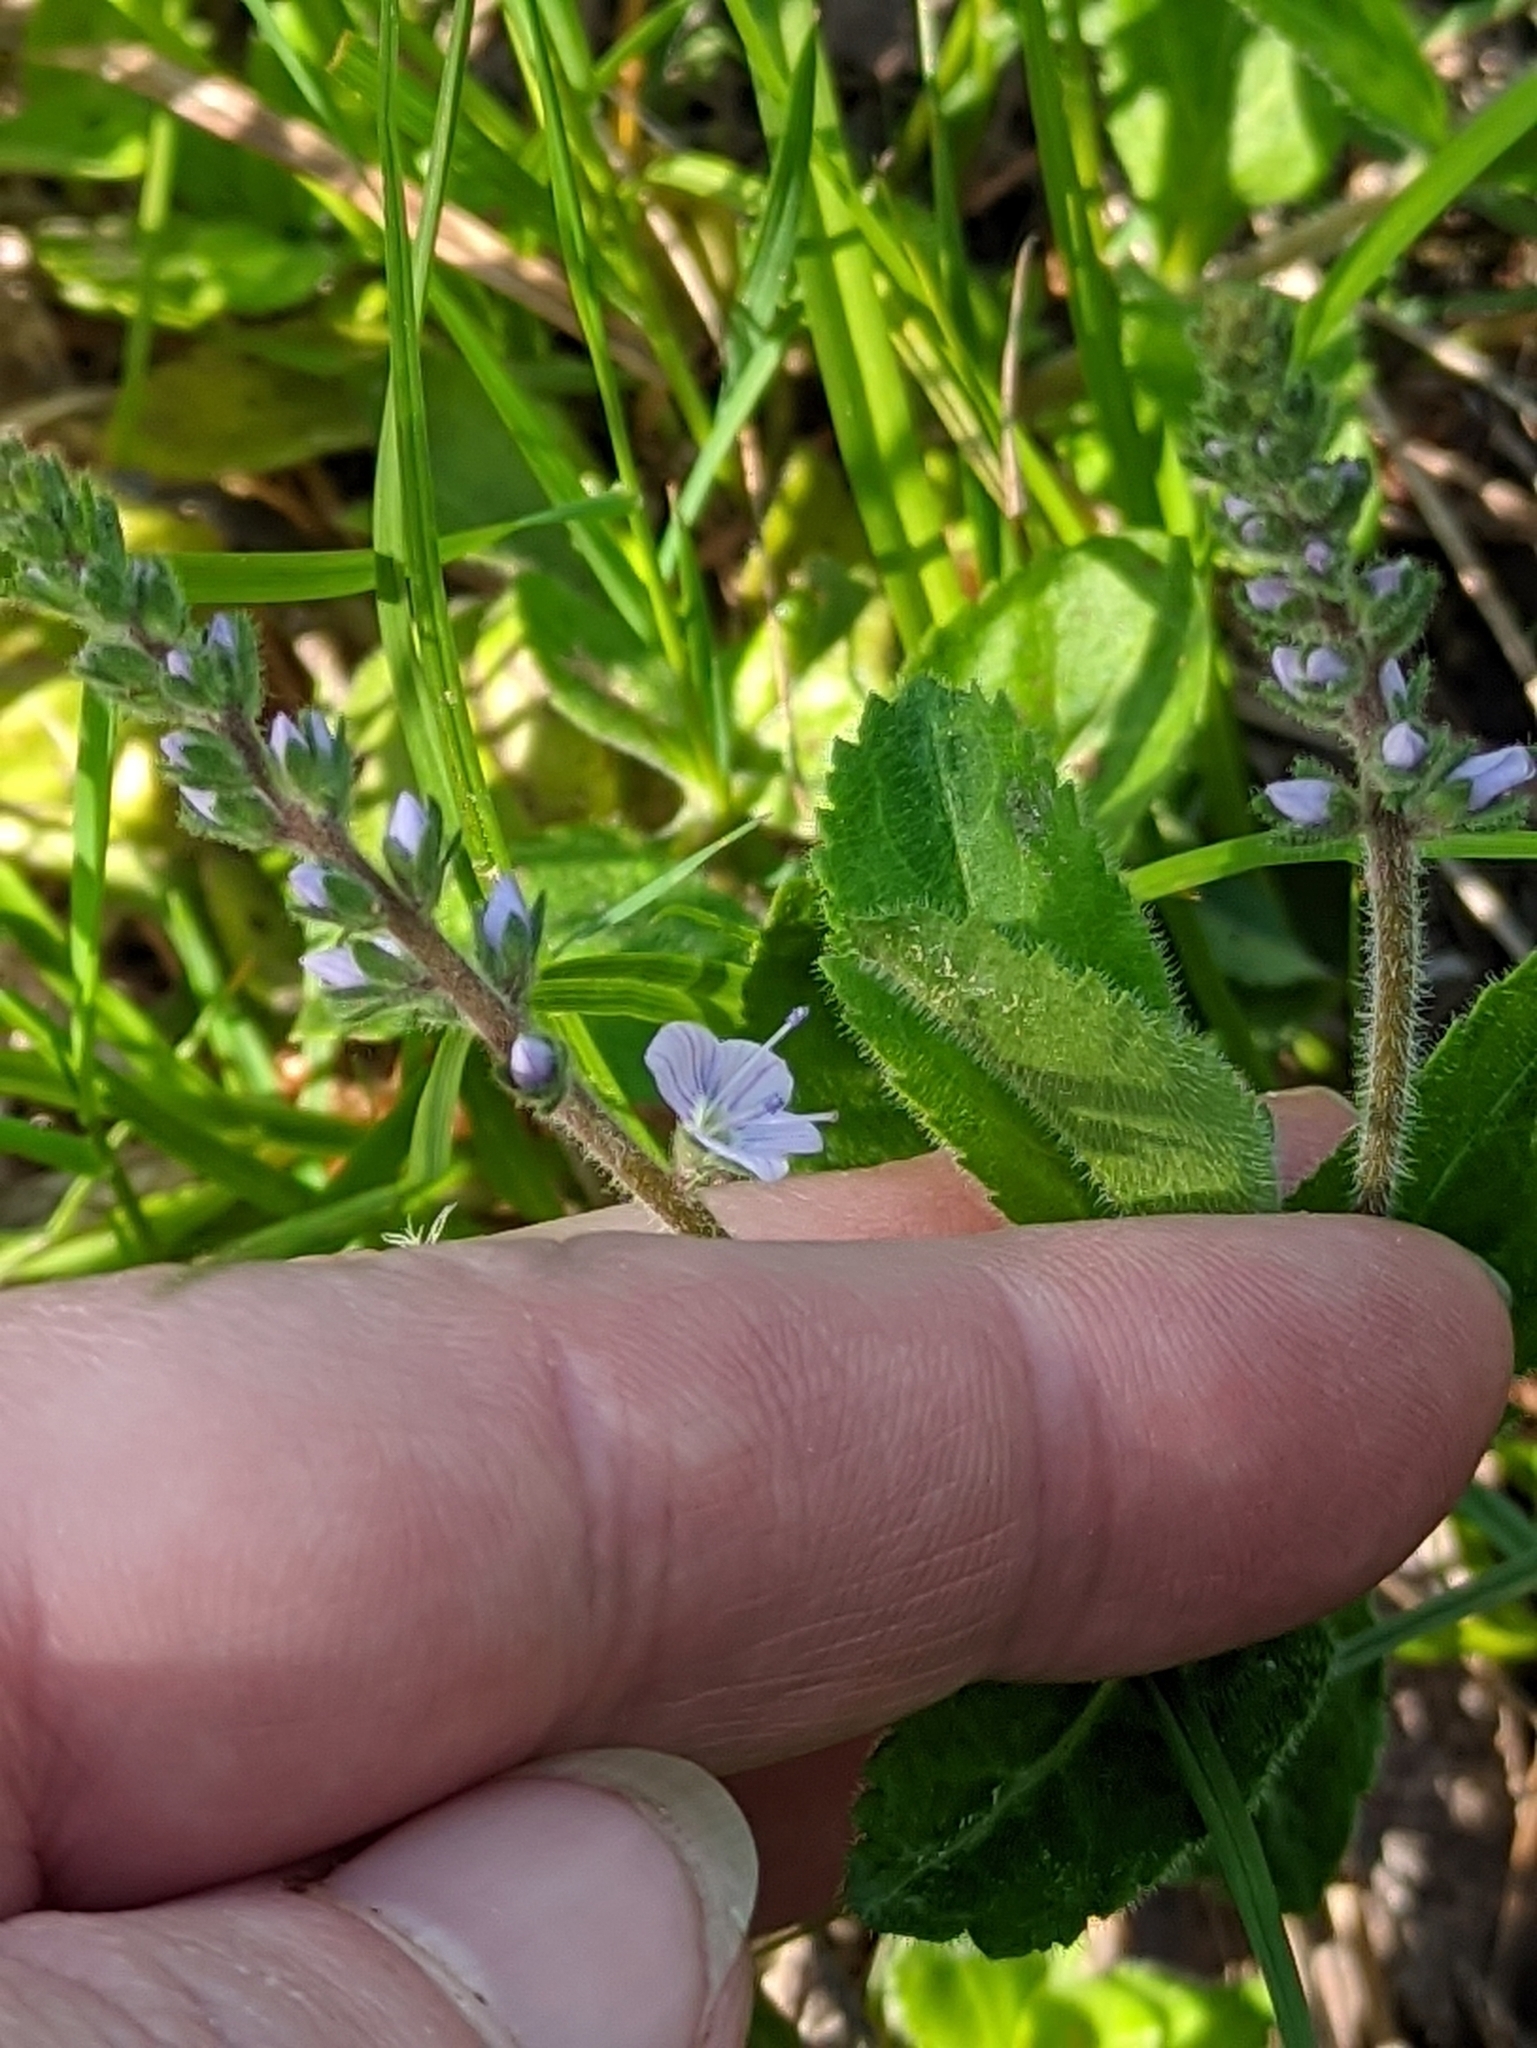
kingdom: Plantae
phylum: Tracheophyta
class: Magnoliopsida
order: Lamiales
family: Plantaginaceae
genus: Veronica
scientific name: Veronica officinalis
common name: Common speedwell
